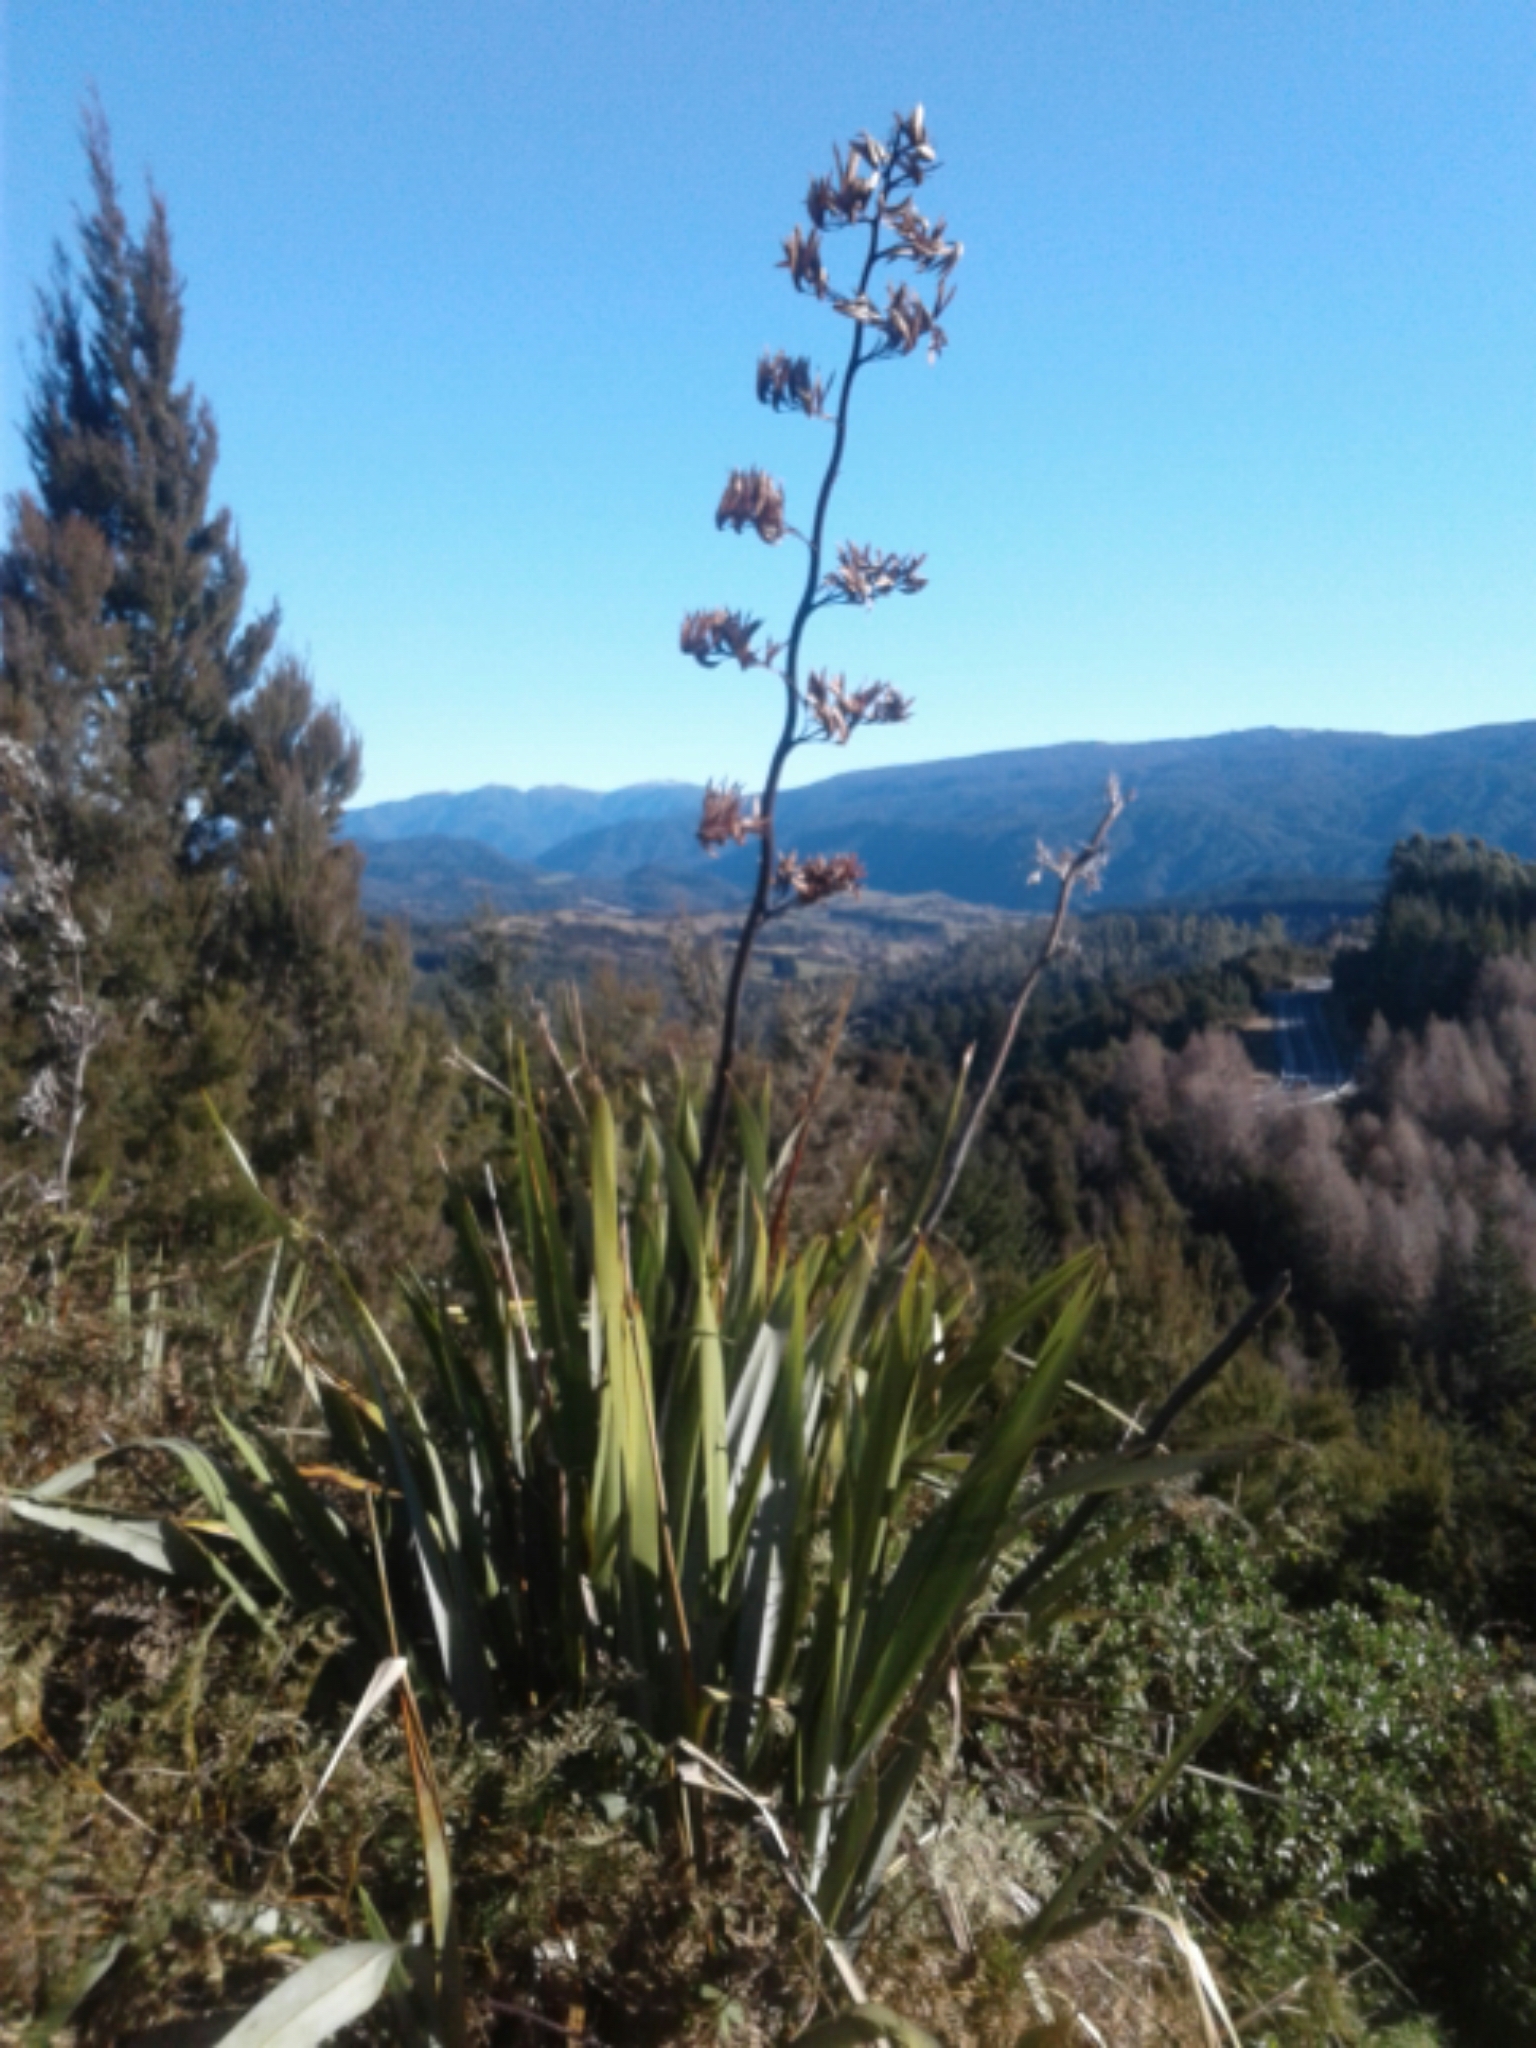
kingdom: Plantae
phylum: Tracheophyta
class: Liliopsida
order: Asparagales
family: Asphodelaceae
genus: Phormium
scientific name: Phormium tenax
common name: New zealand flax
